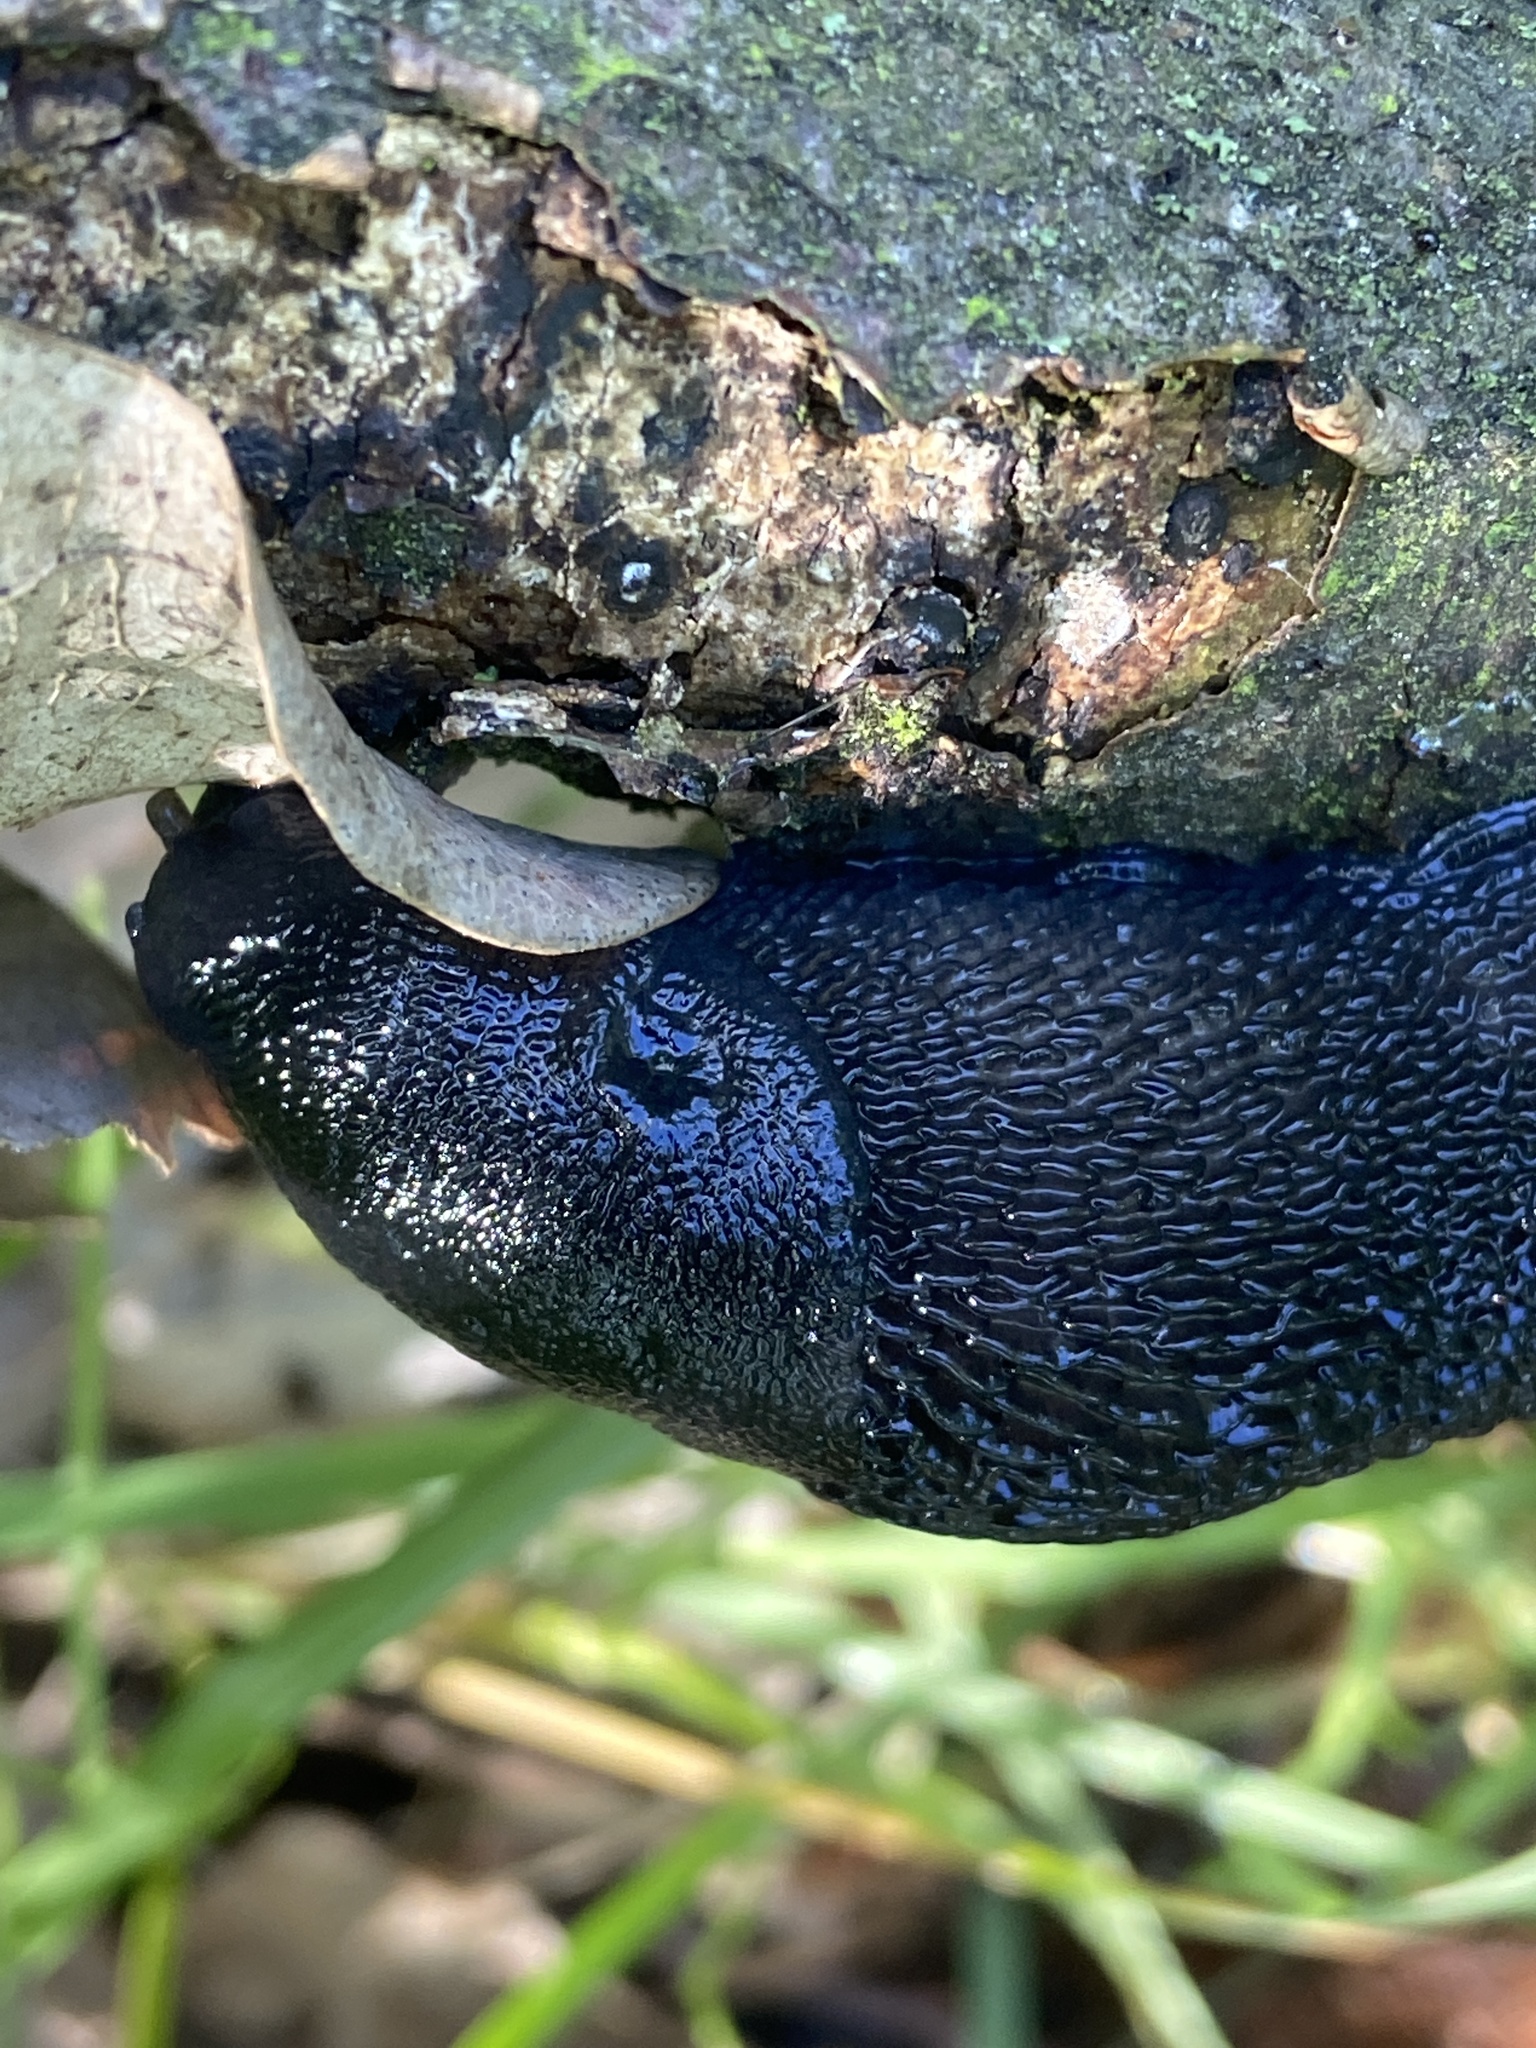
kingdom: Animalia
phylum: Mollusca
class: Gastropoda
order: Stylommatophora
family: Limacidae
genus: Limax
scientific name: Limax cinereoniger
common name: Ash-black slug
